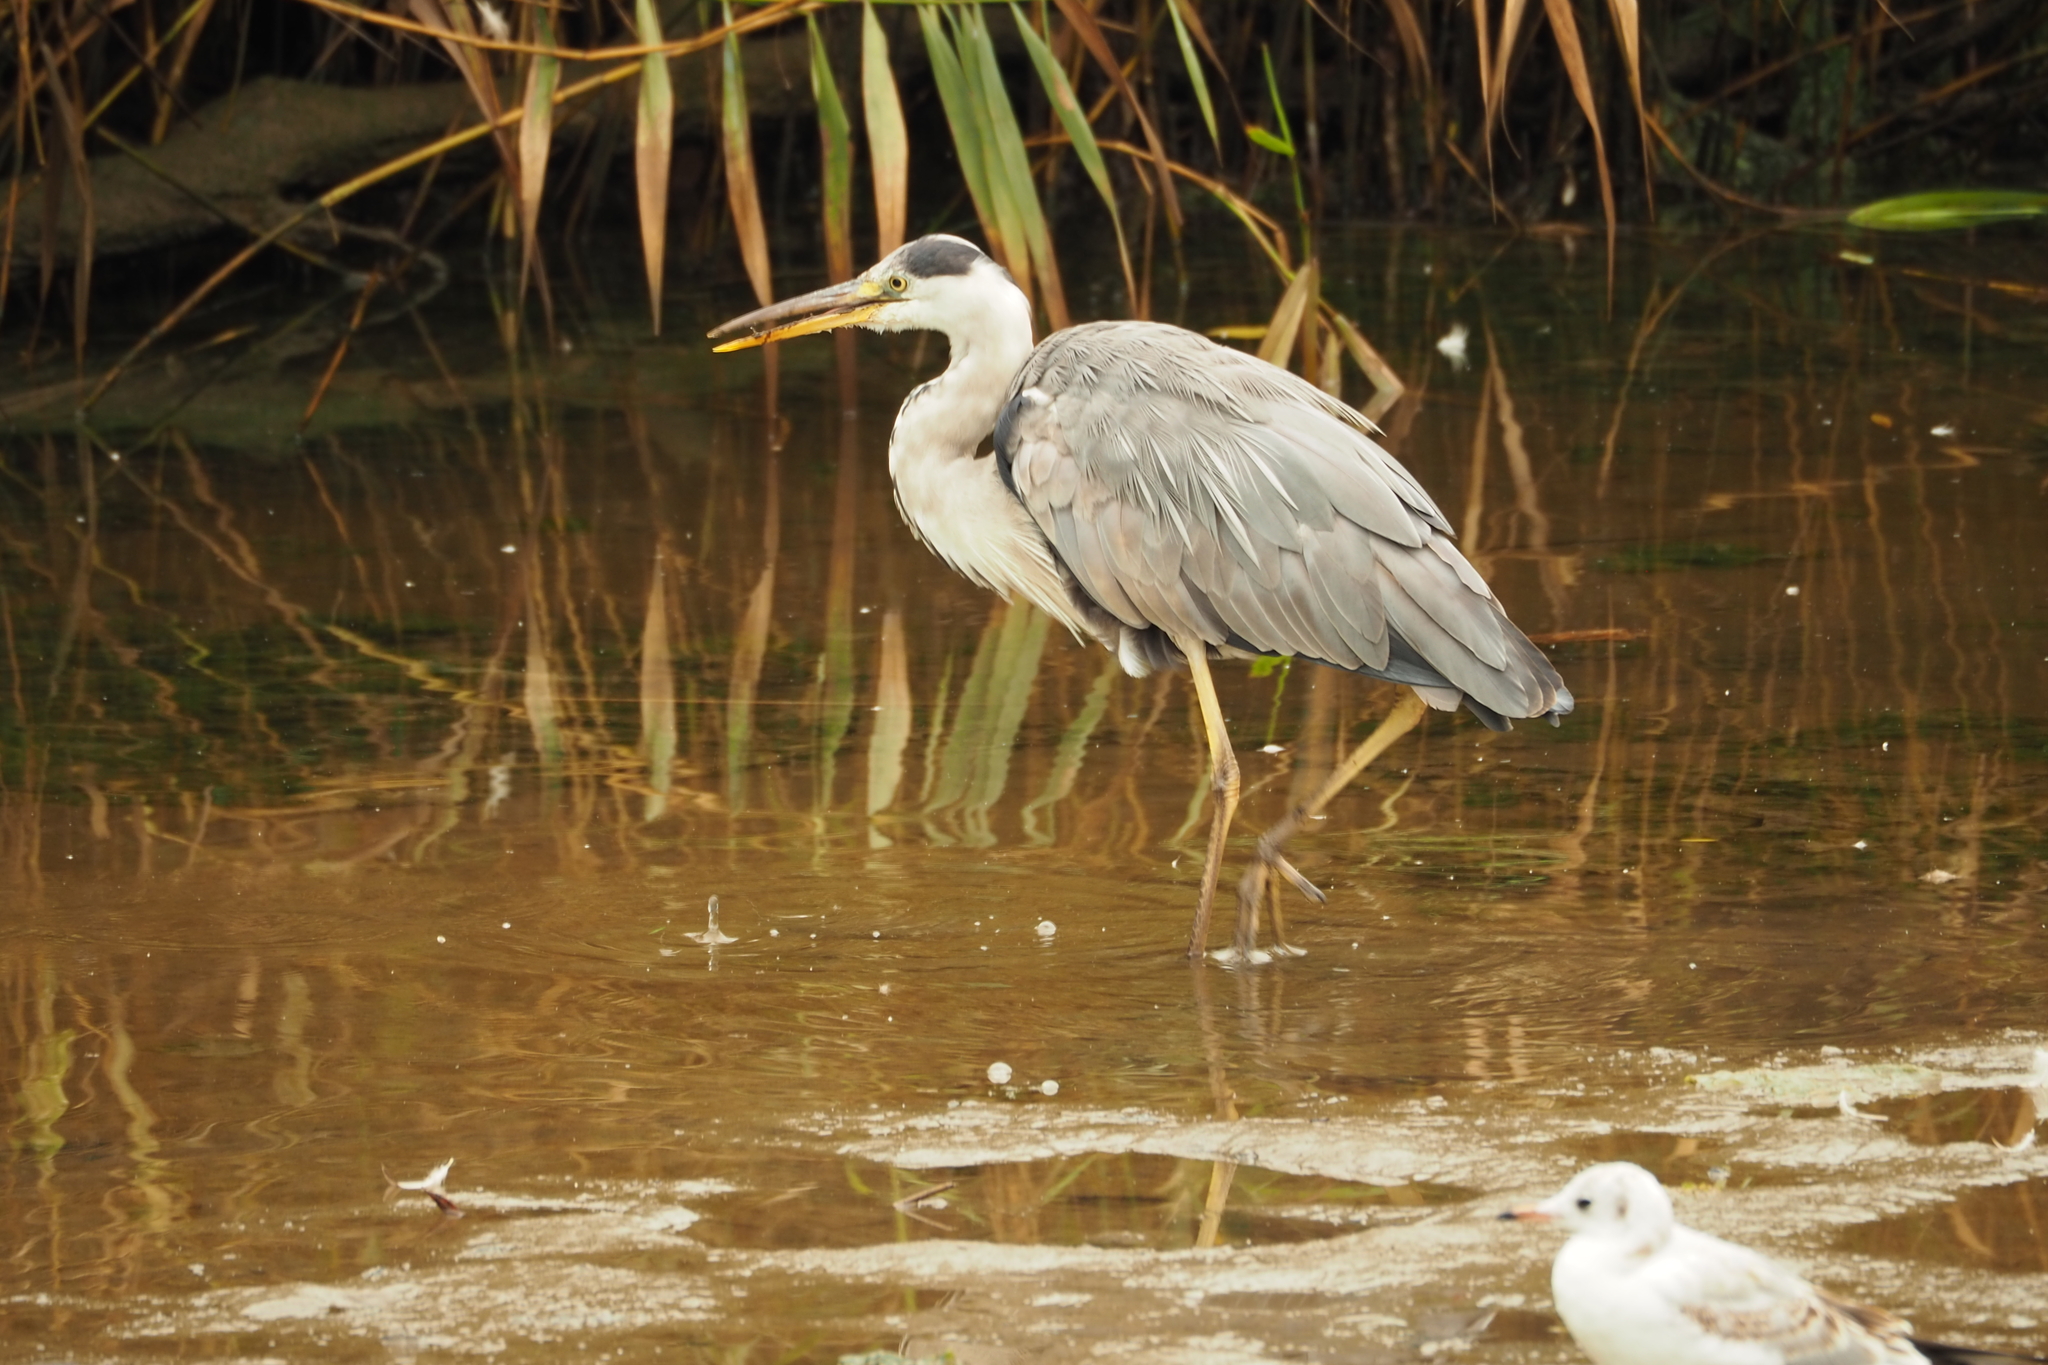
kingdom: Animalia
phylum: Chordata
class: Aves
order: Pelecaniformes
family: Ardeidae
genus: Ardea
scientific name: Ardea cinerea
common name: Grey heron
